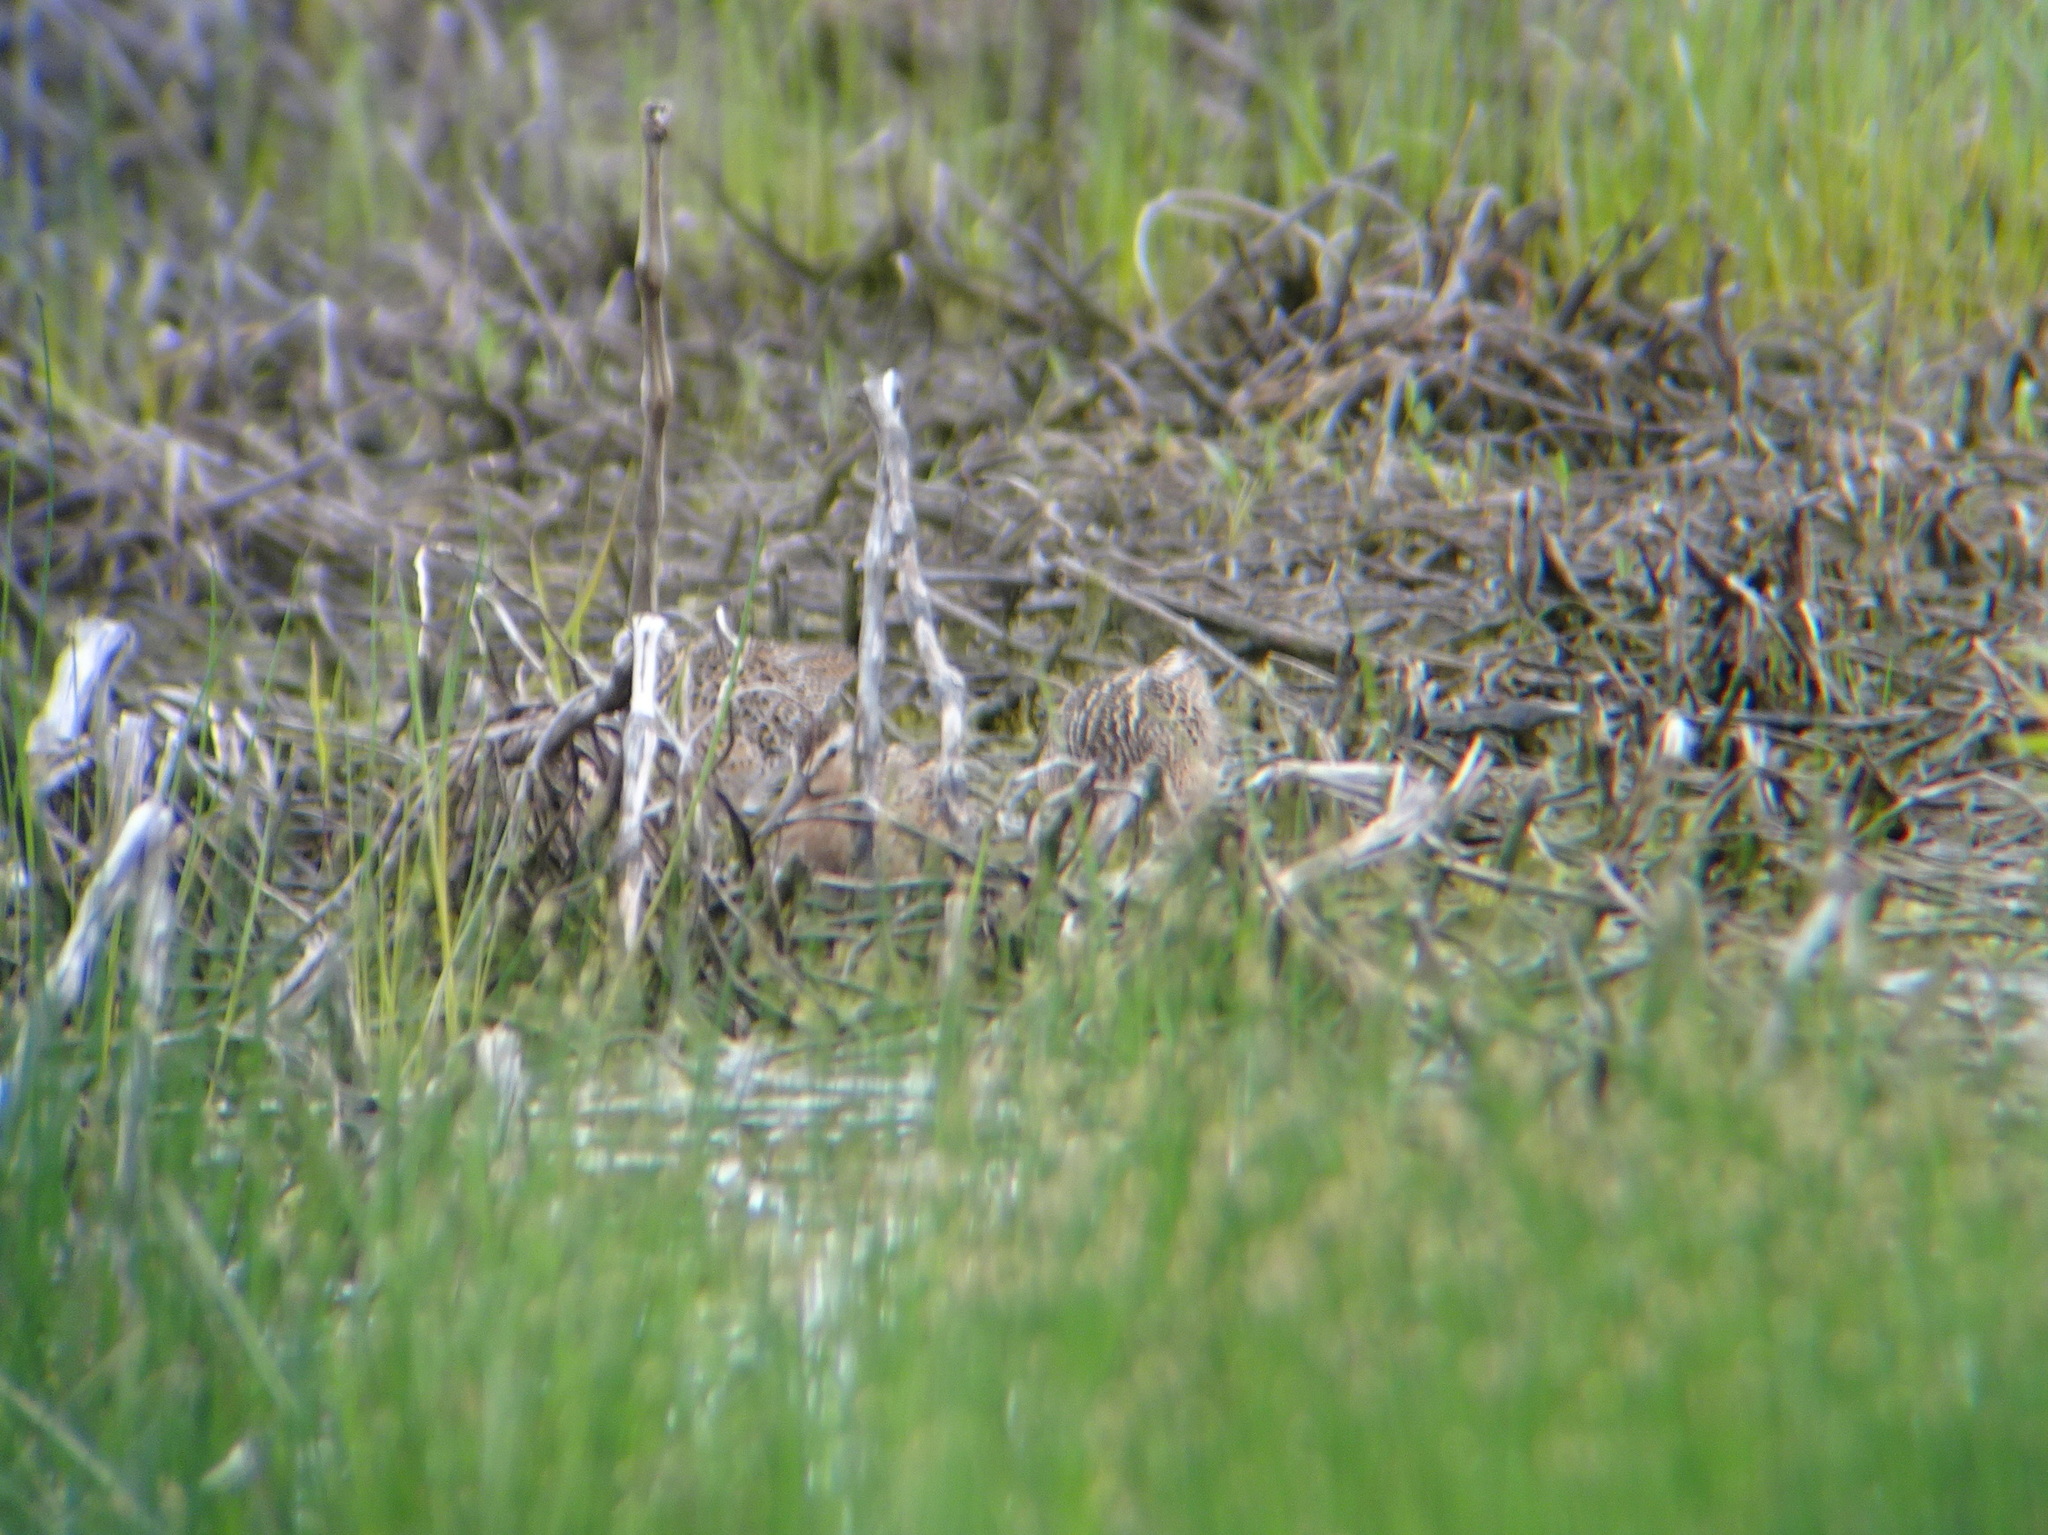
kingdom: Animalia
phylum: Chordata
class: Aves
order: Charadriiformes
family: Scolopacidae
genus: Limnodromus
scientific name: Limnodromus
